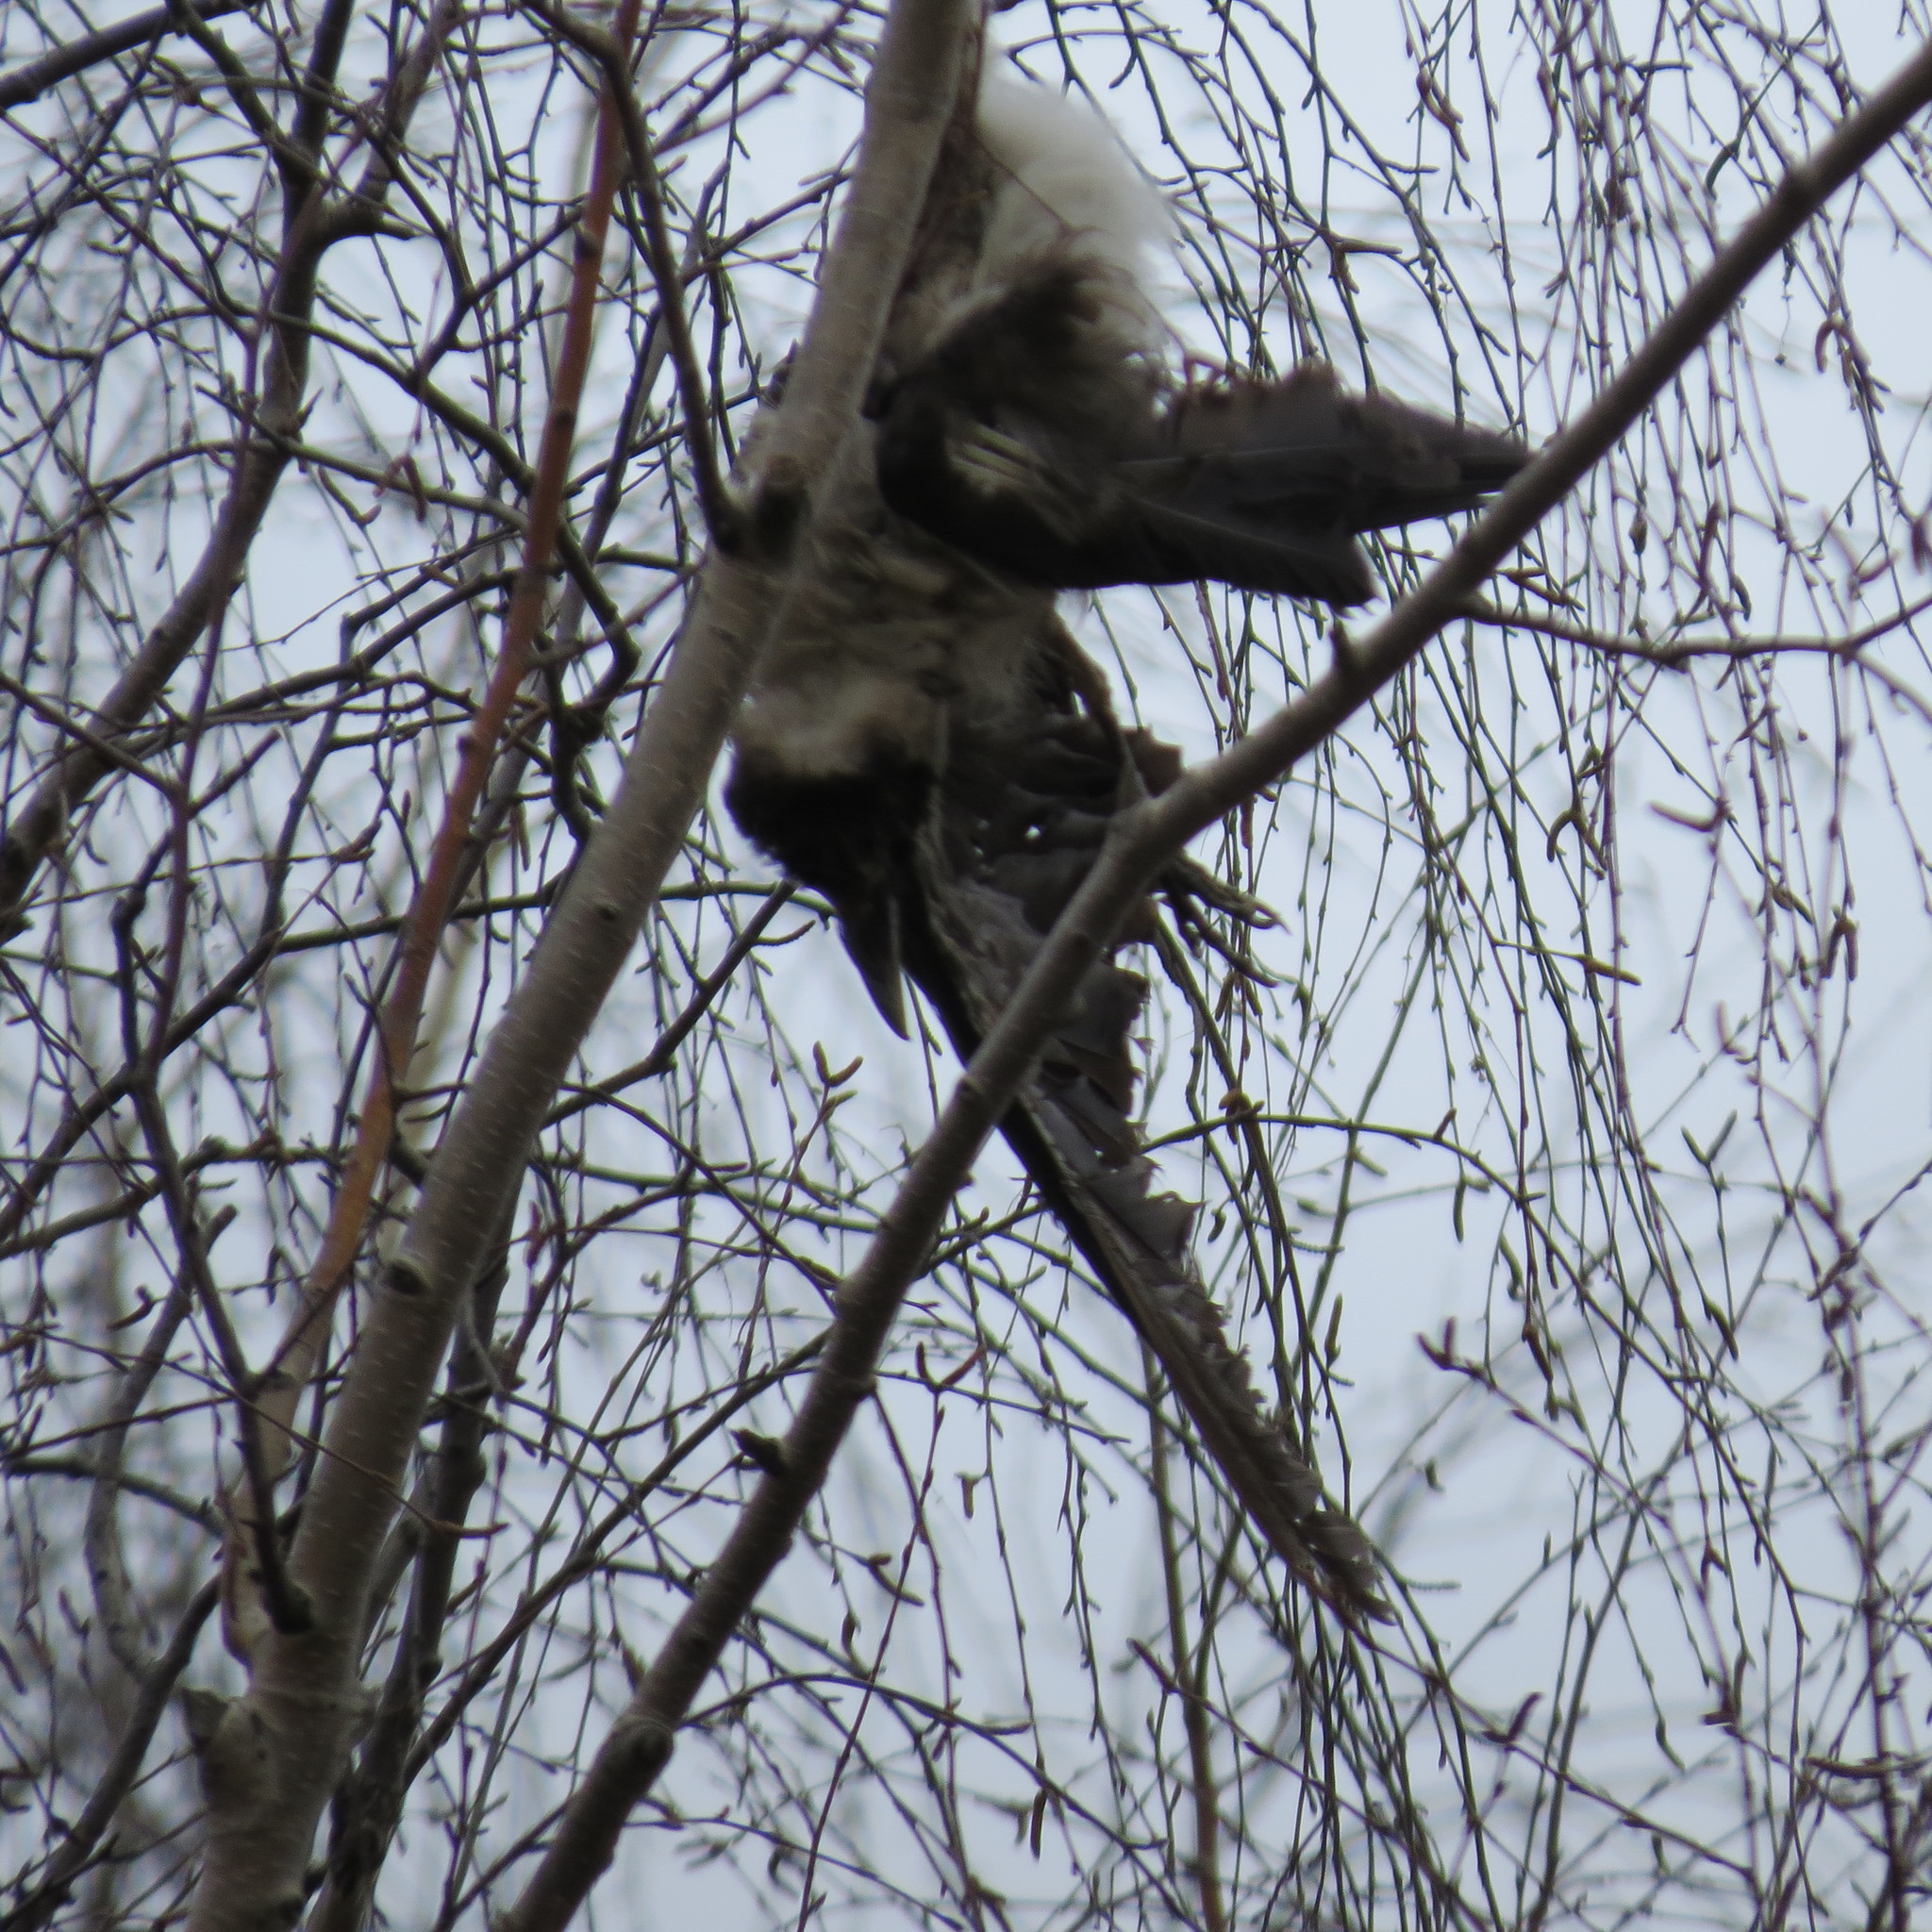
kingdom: Animalia
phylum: Chordata
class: Aves
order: Passeriformes
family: Corvidae
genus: Corvus
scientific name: Corvus cornix
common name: Hooded crow
